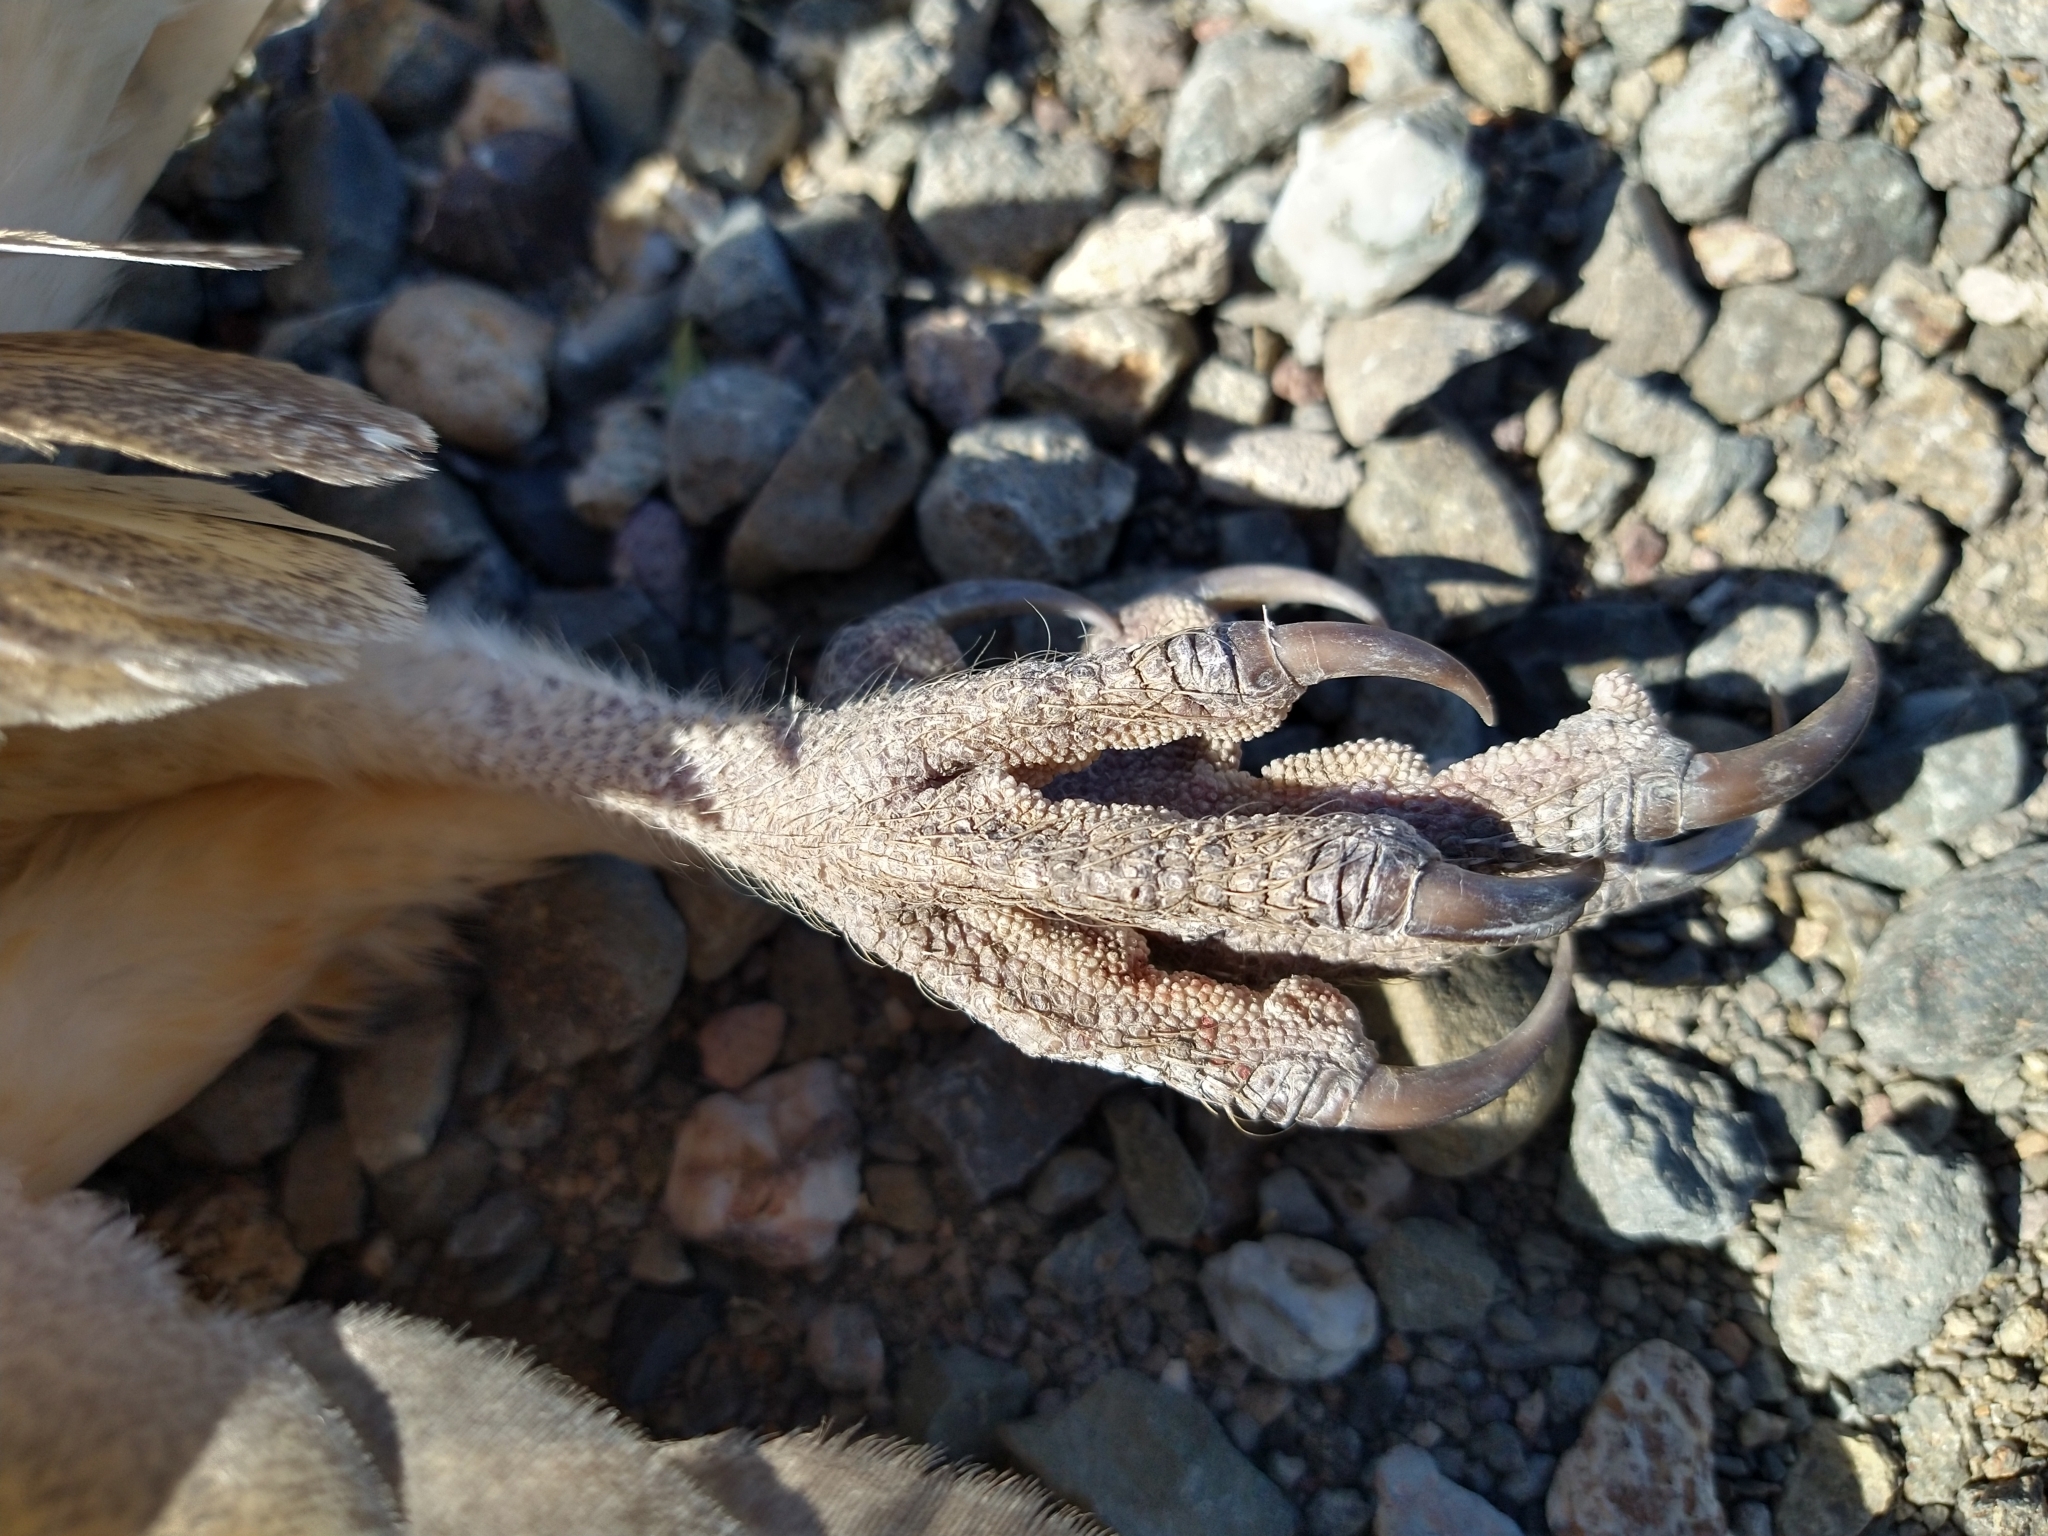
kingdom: Animalia
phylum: Chordata
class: Aves
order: Strigiformes
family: Tytonidae
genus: Tyto
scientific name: Tyto alba
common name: Barn owl
